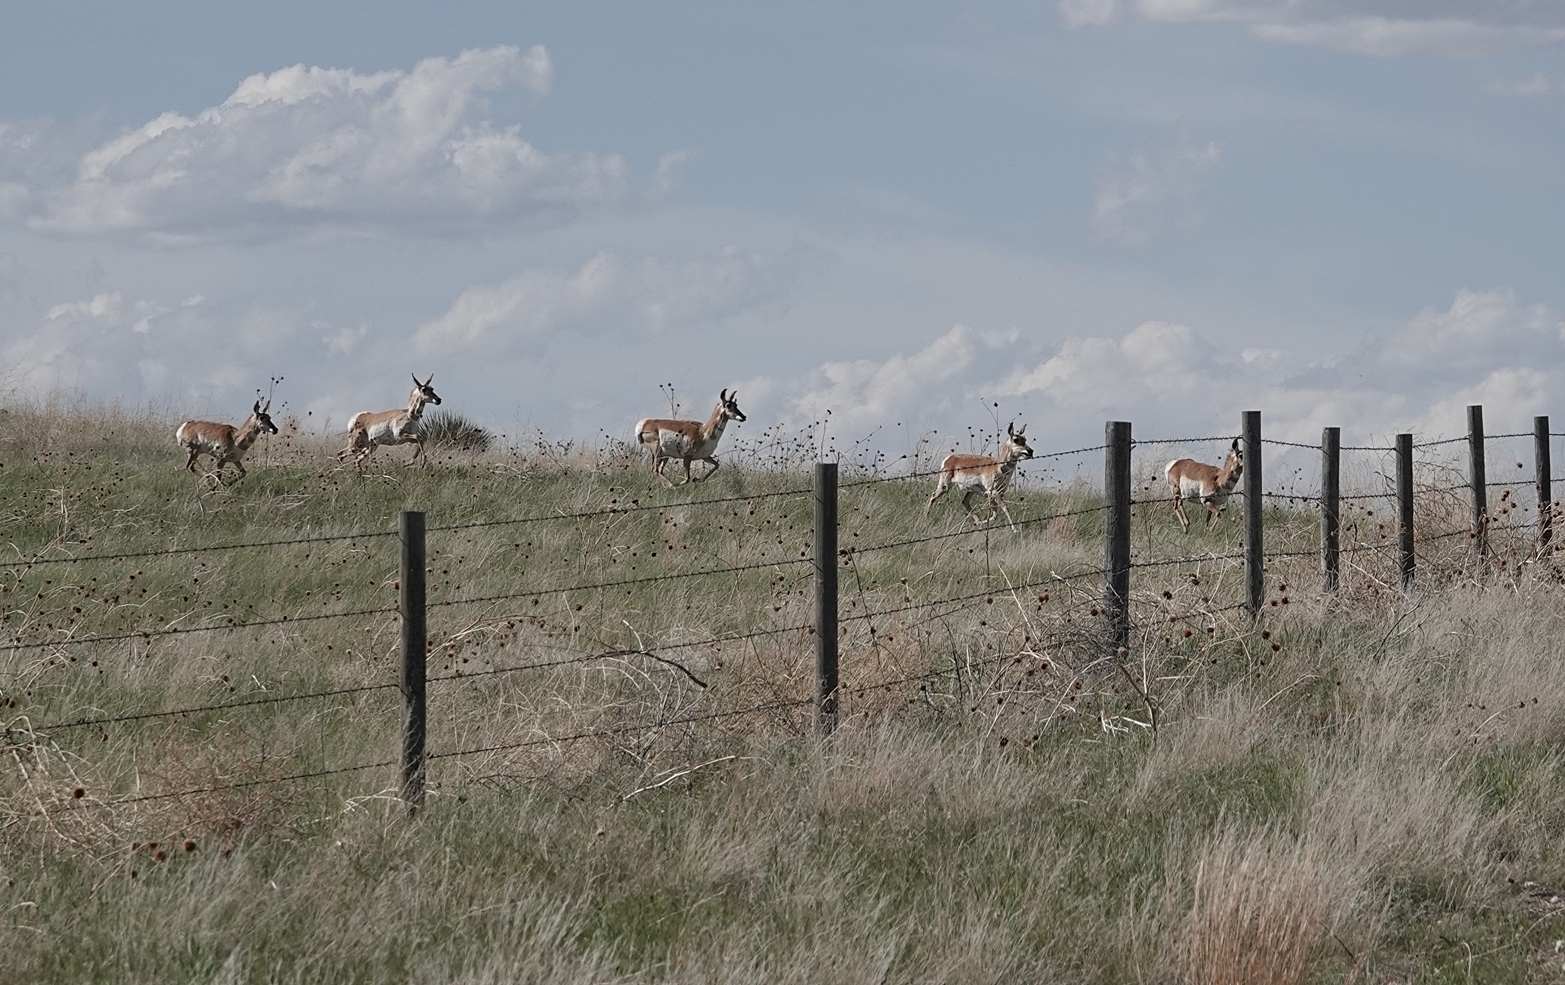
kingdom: Animalia
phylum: Chordata
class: Mammalia
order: Artiodactyla
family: Antilocapridae
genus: Antilocapra
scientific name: Antilocapra americana
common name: Pronghorn
